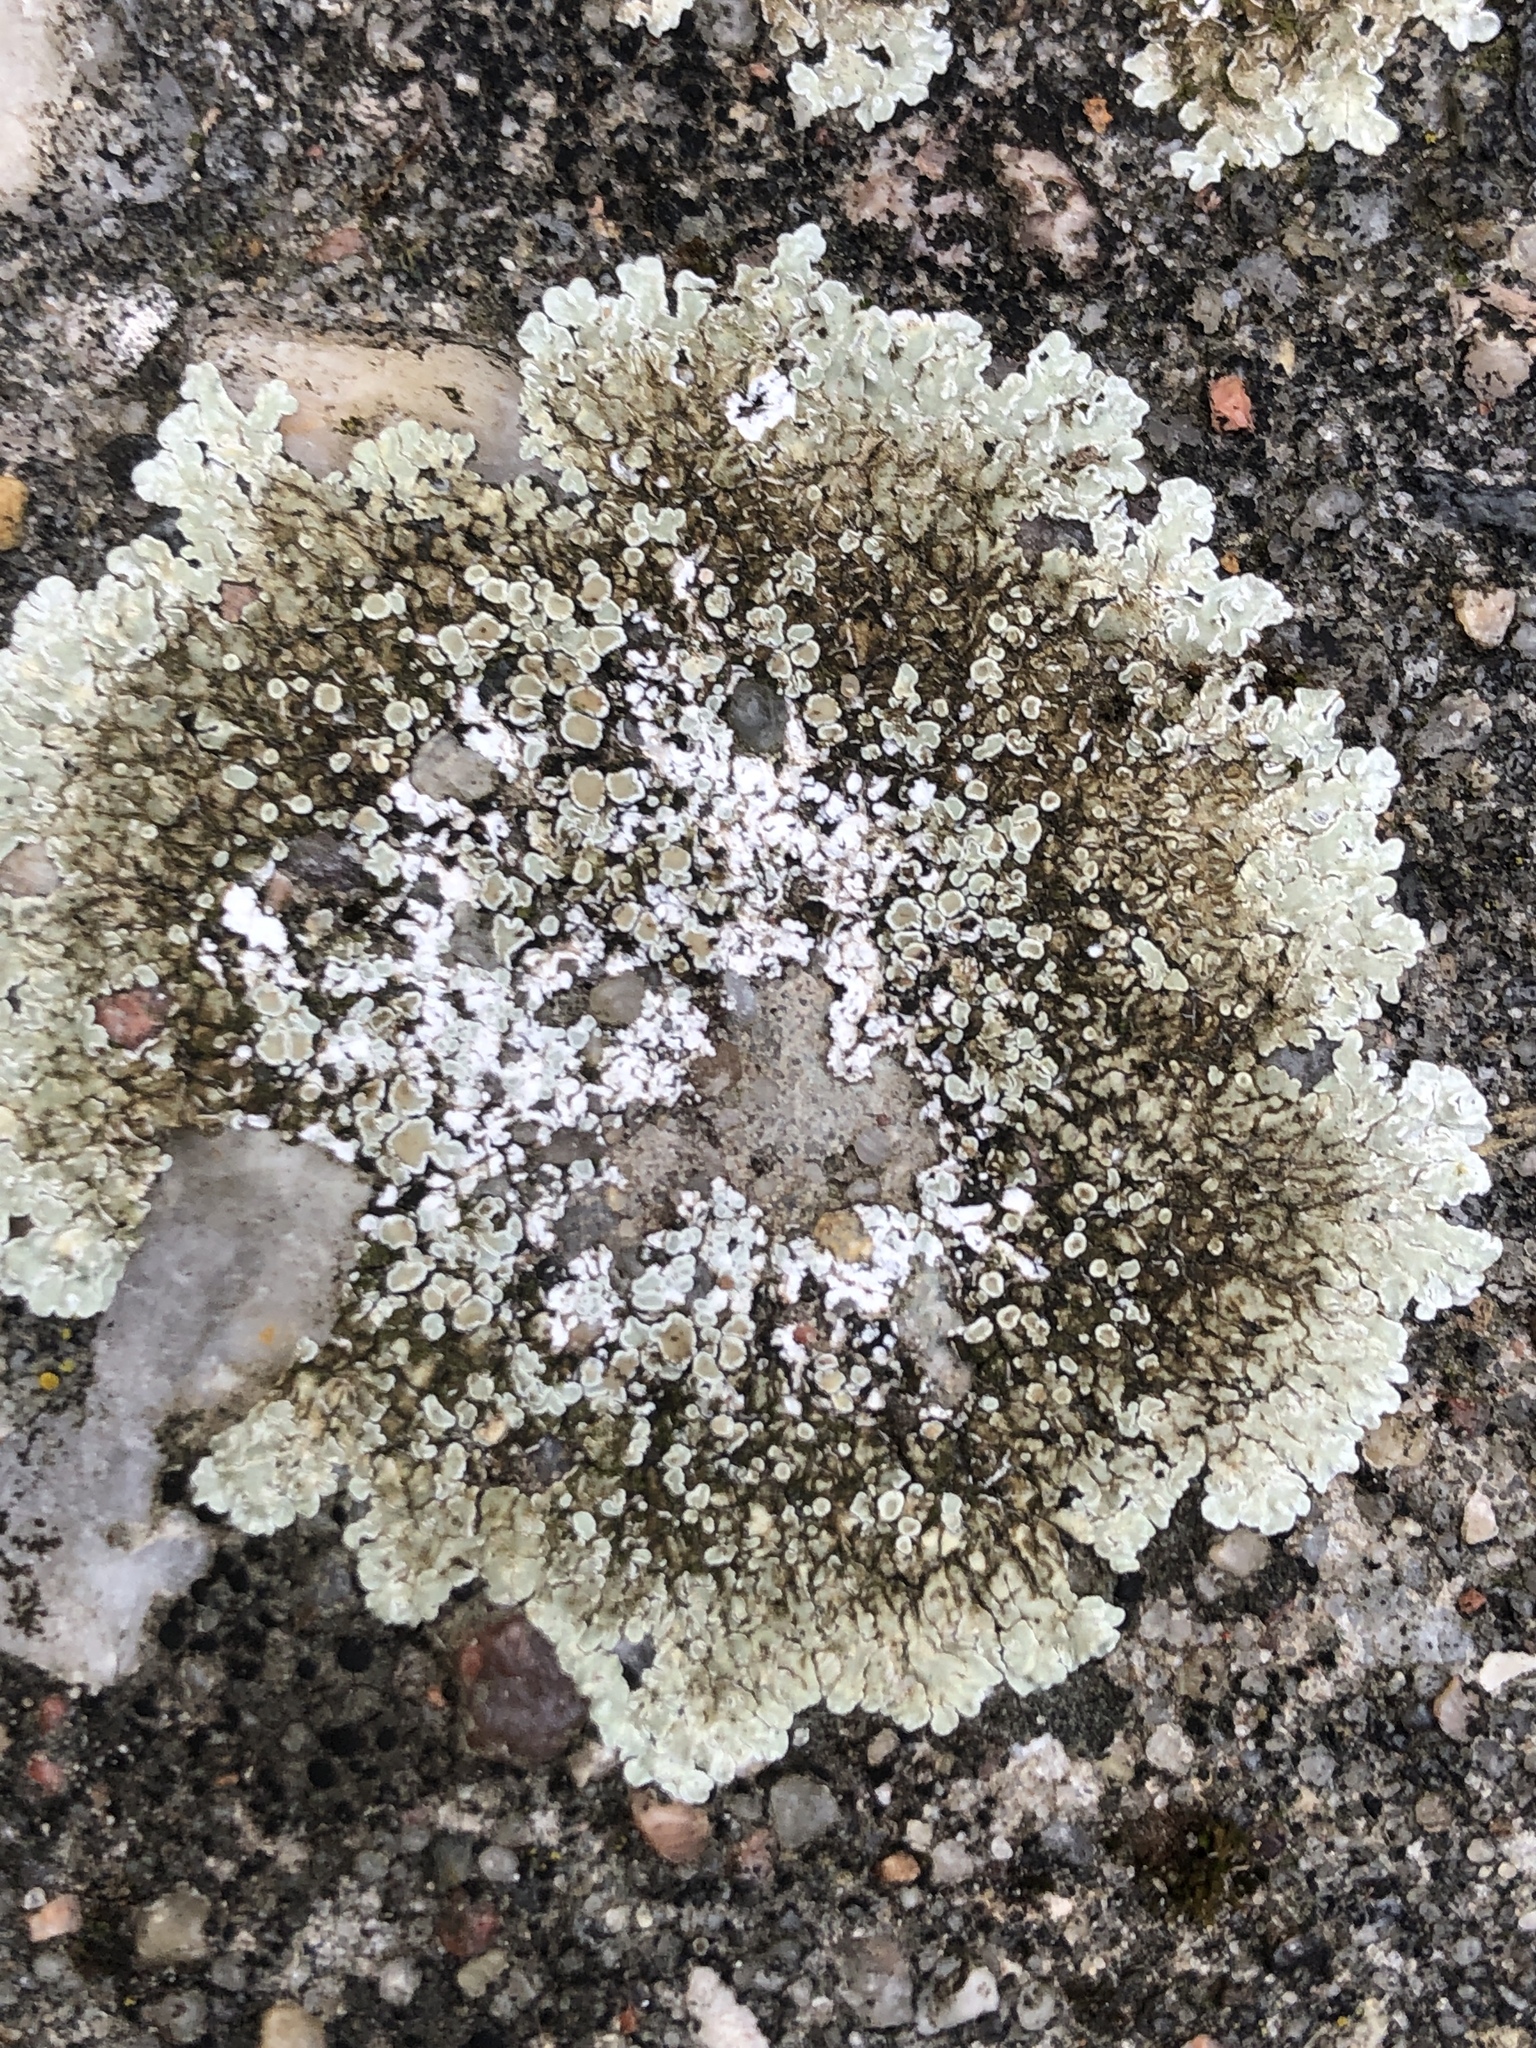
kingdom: Fungi
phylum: Ascomycota
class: Lecanoromycetes
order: Lecanorales
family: Lecanoraceae
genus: Protoparmeliopsis
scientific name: Protoparmeliopsis muralis
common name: Stonewall rim lichen
